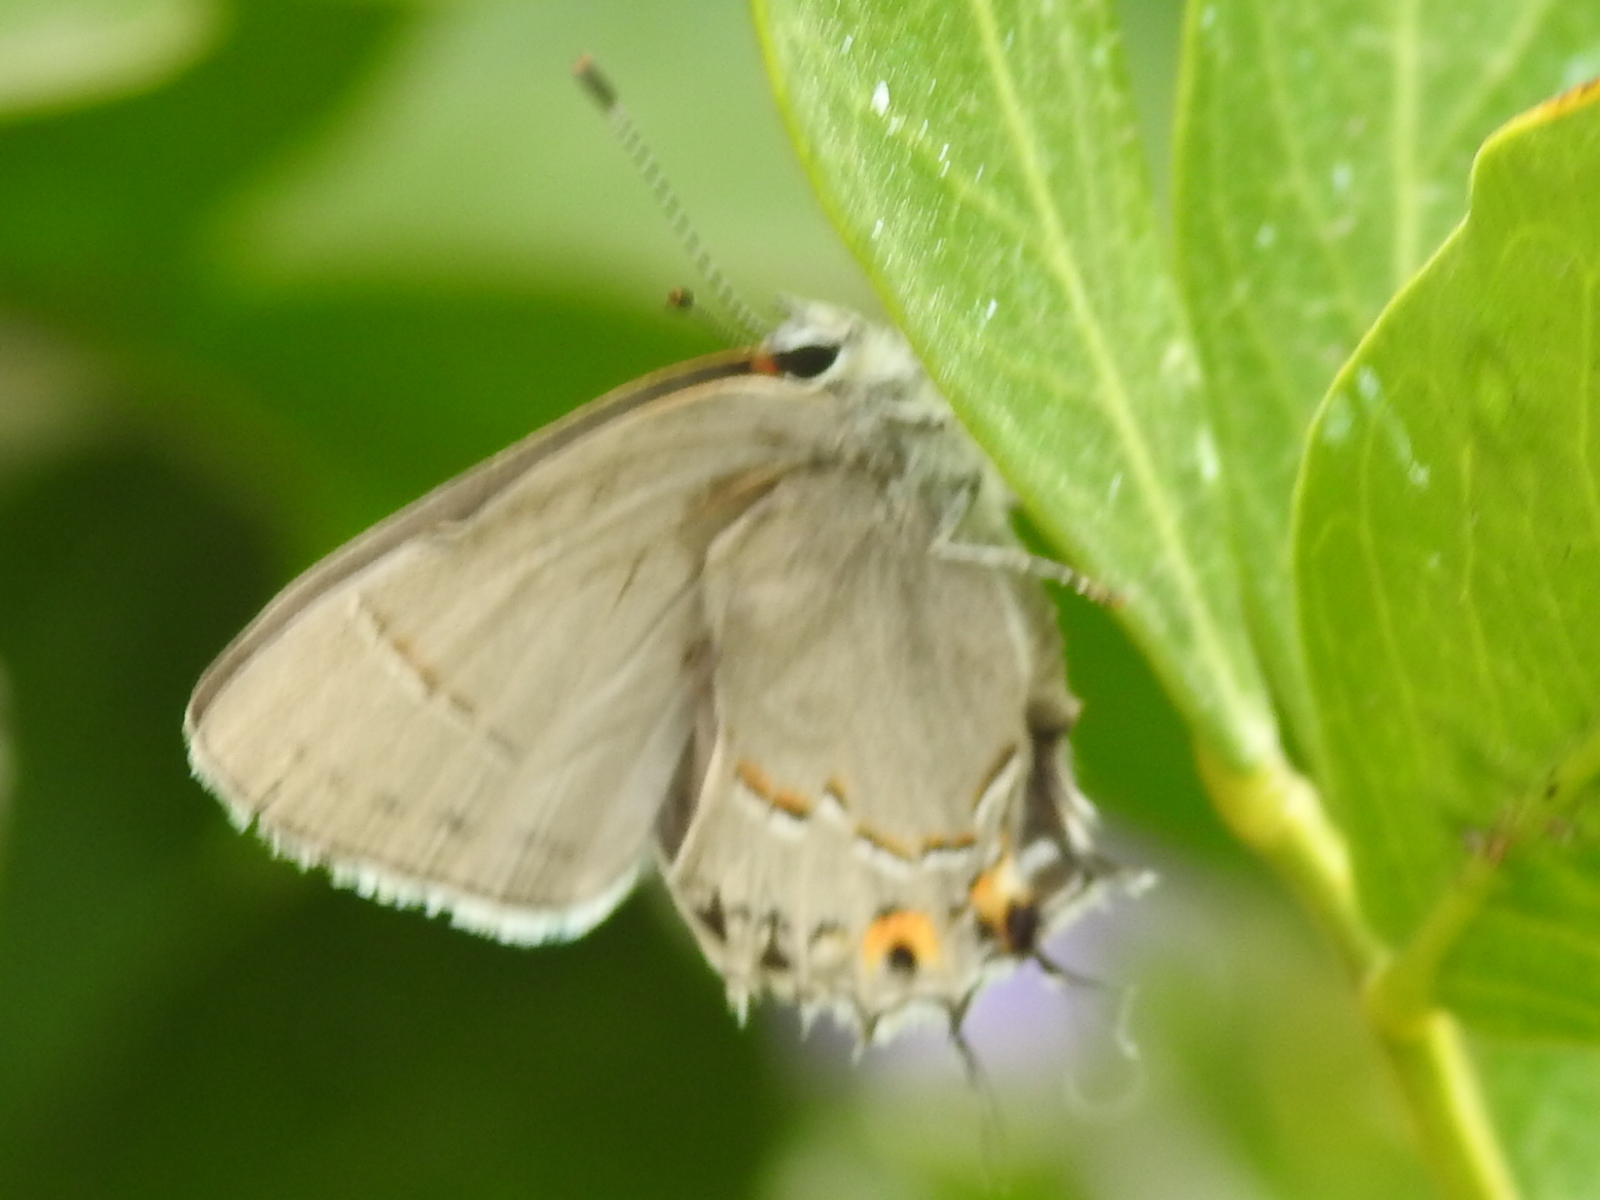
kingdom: Animalia
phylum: Arthropoda
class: Insecta
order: Lepidoptera
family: Lycaenidae
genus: Strymon
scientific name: Strymon melinus
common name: Gray hairstreak
